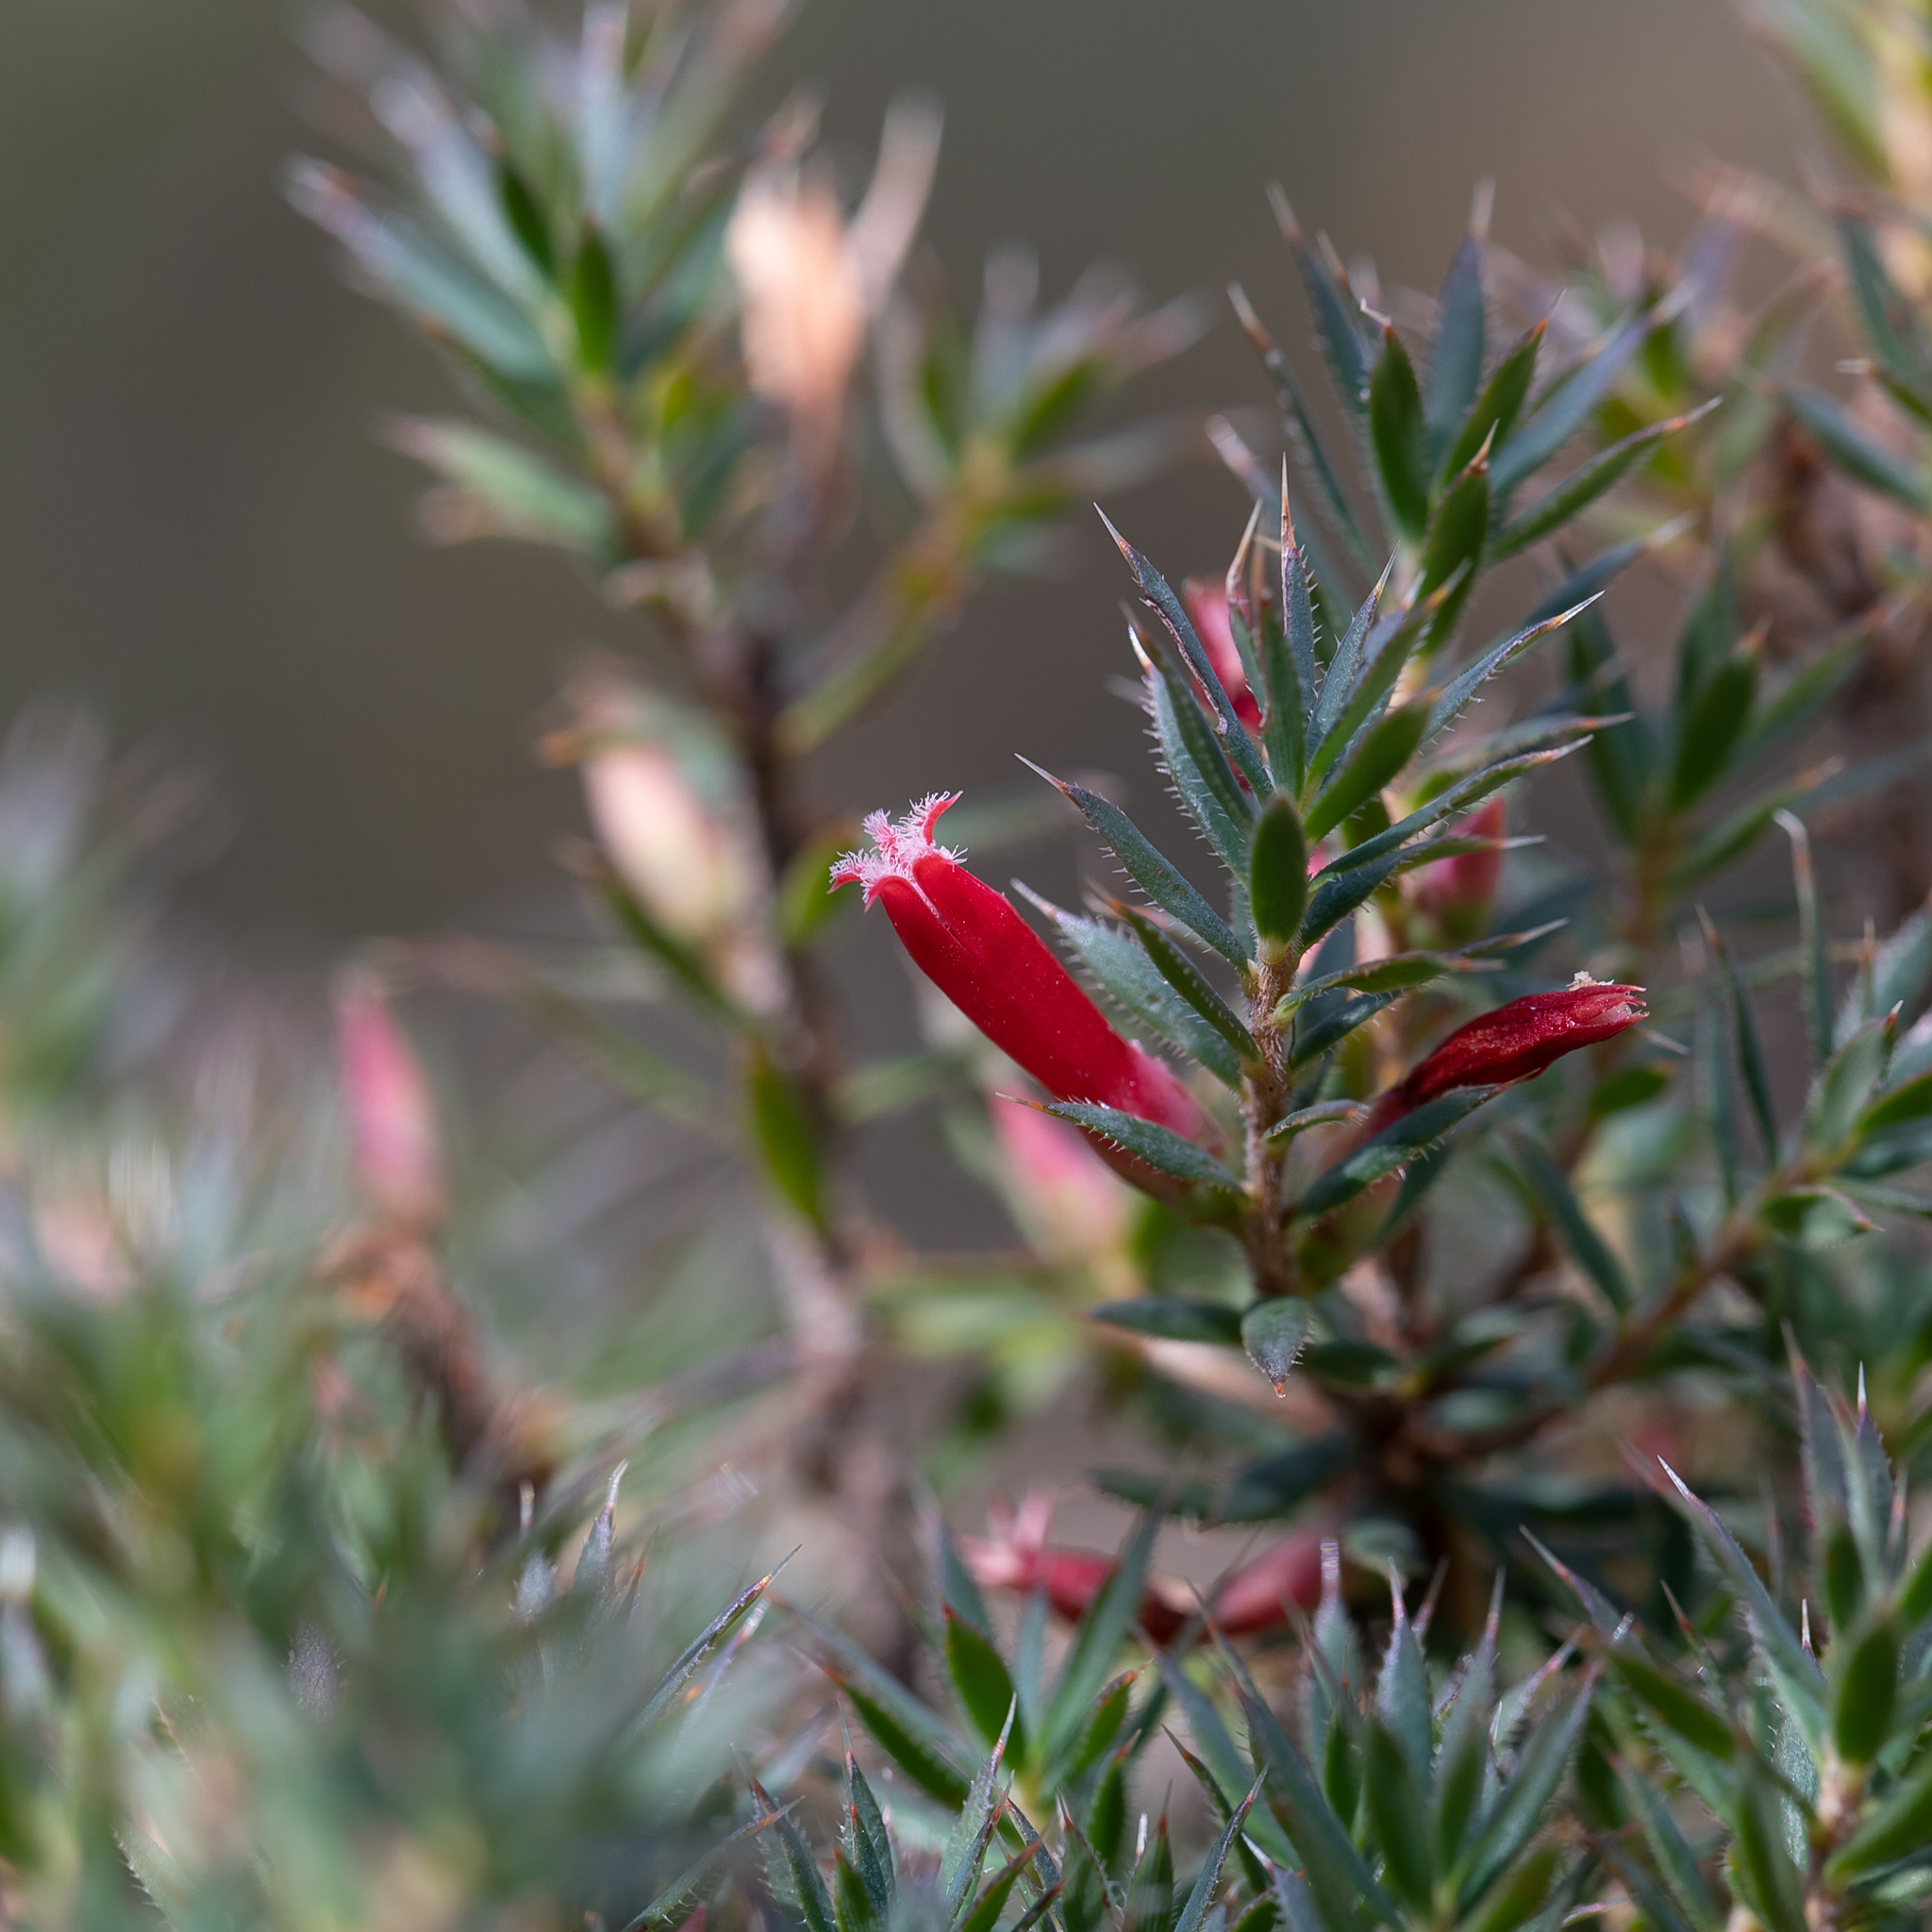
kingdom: Plantae
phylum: Tracheophyta
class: Magnoliopsida
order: Ericales
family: Ericaceae
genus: Styphelia
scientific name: Styphelia humifusa
